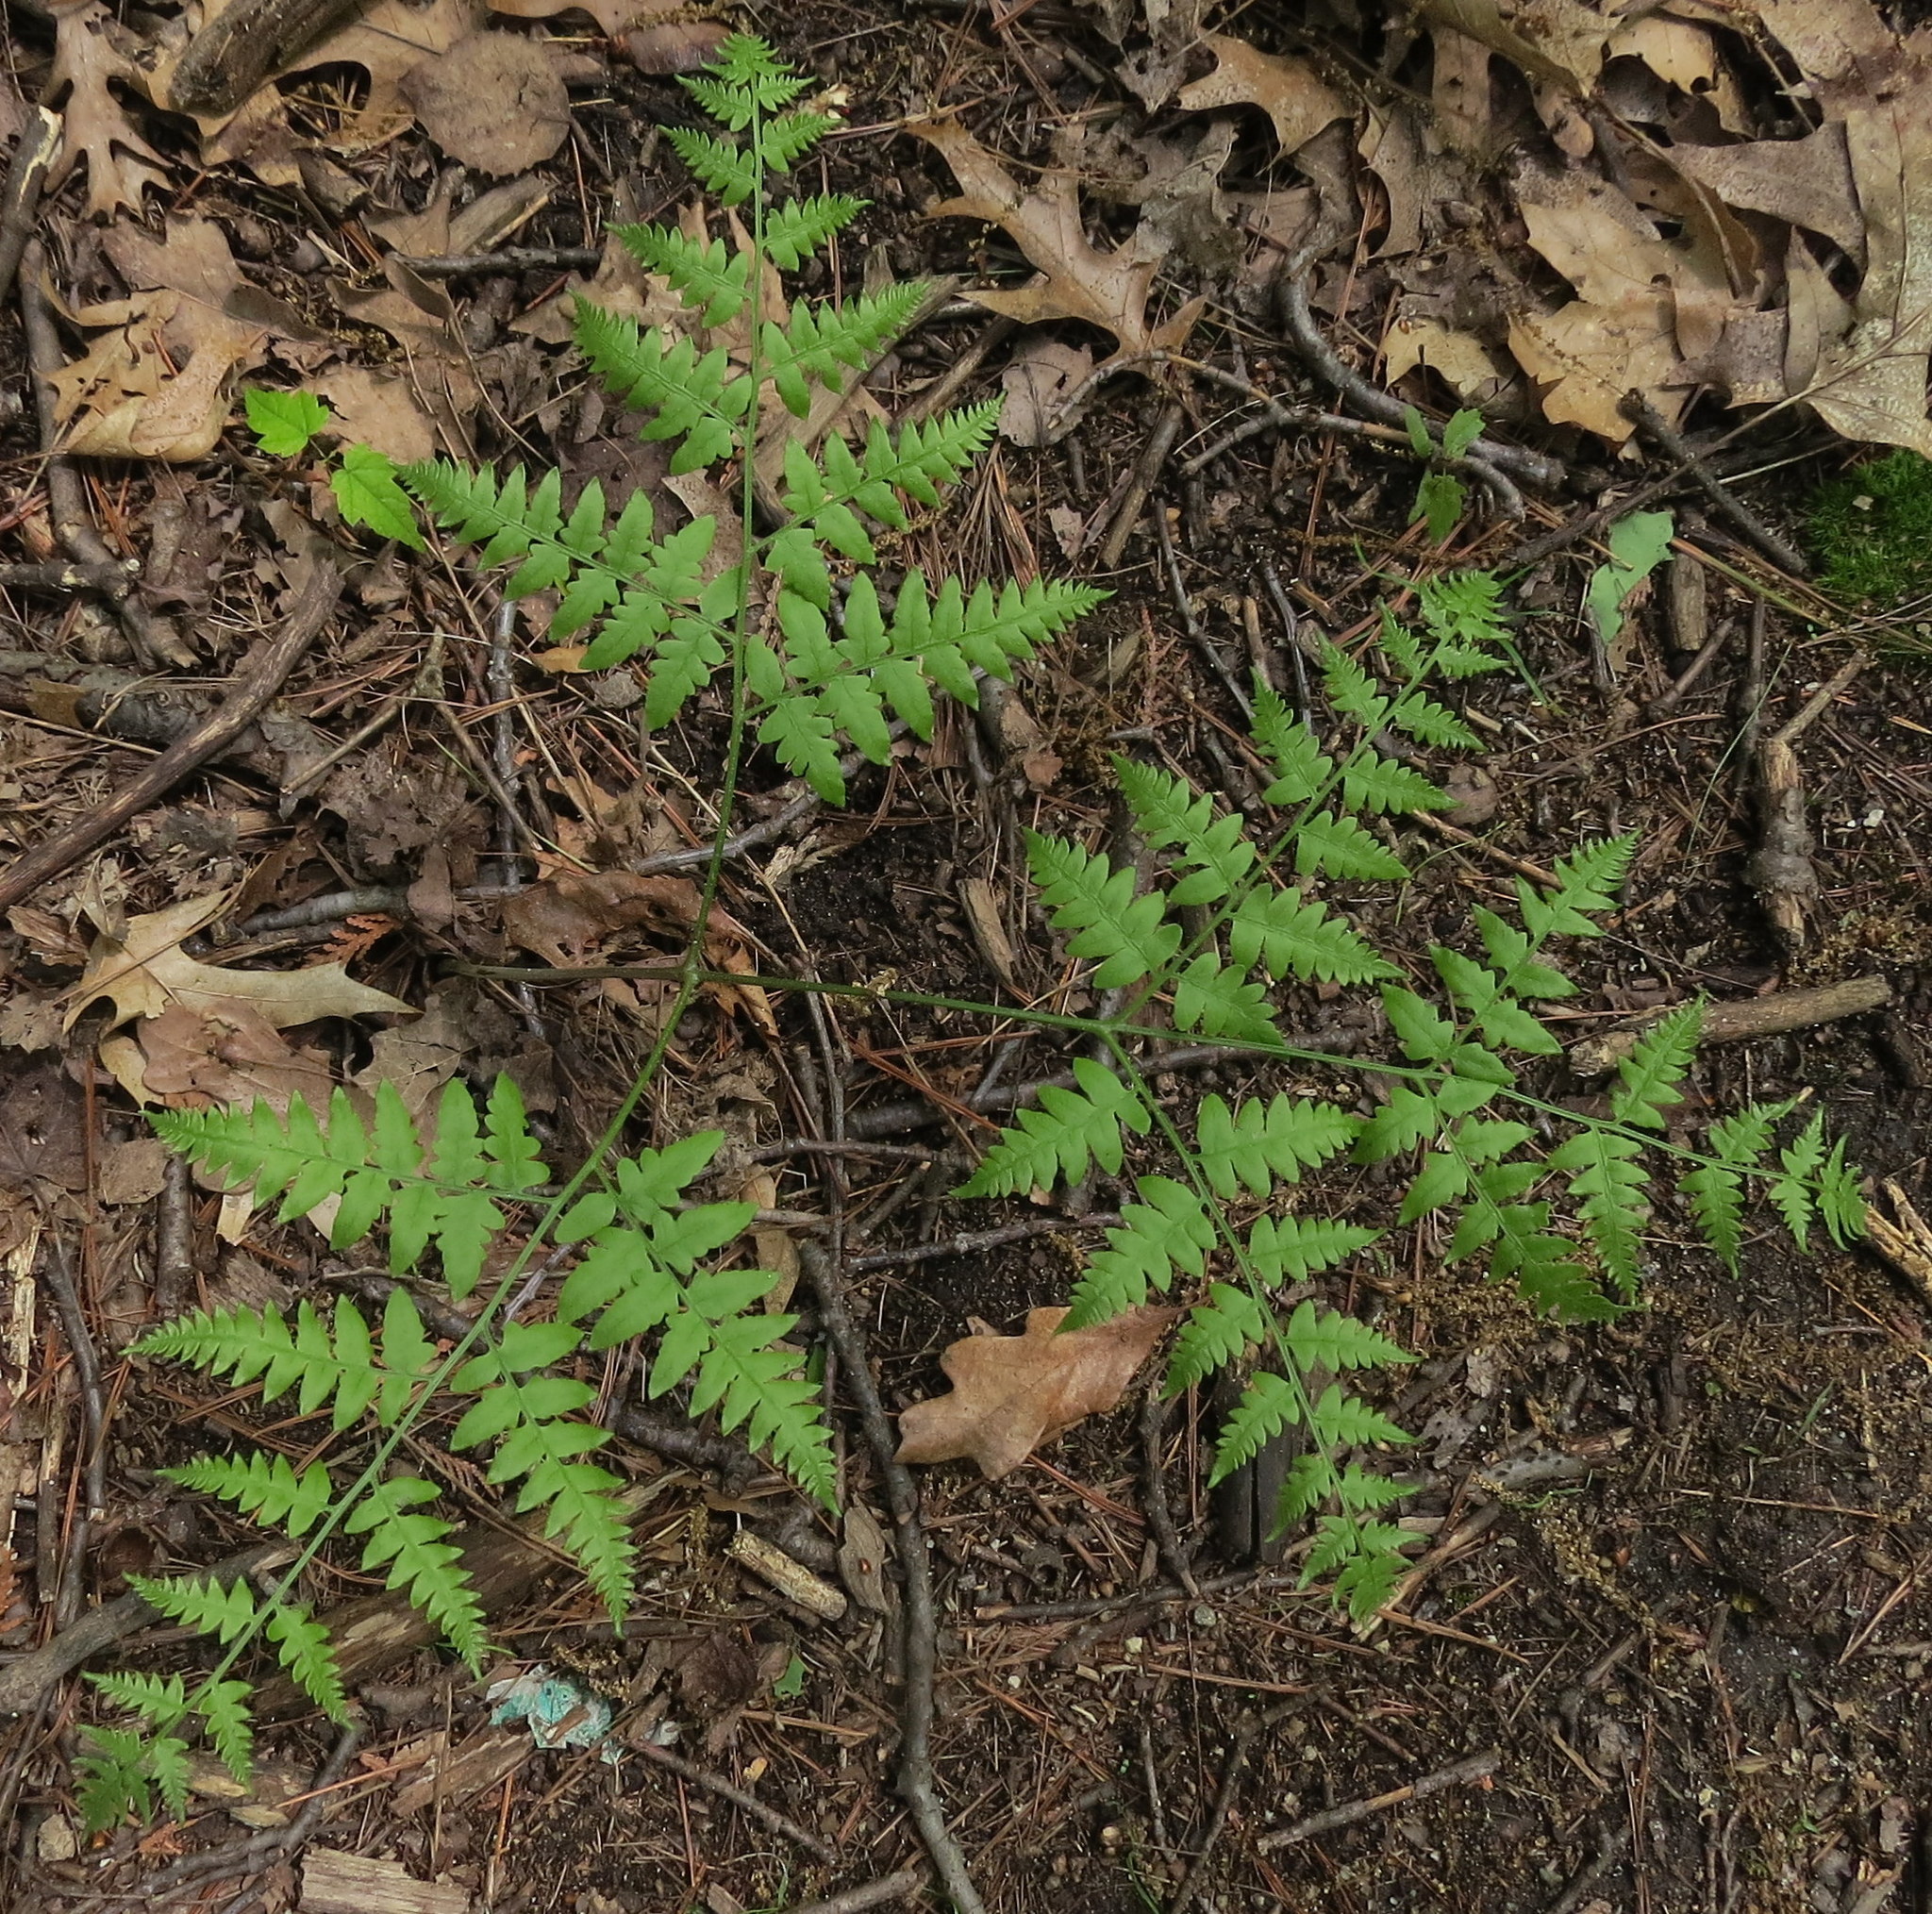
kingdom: Plantae
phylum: Tracheophyta
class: Polypodiopsida
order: Polypodiales
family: Dennstaedtiaceae
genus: Pteridium
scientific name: Pteridium aquilinum
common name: Bracken
